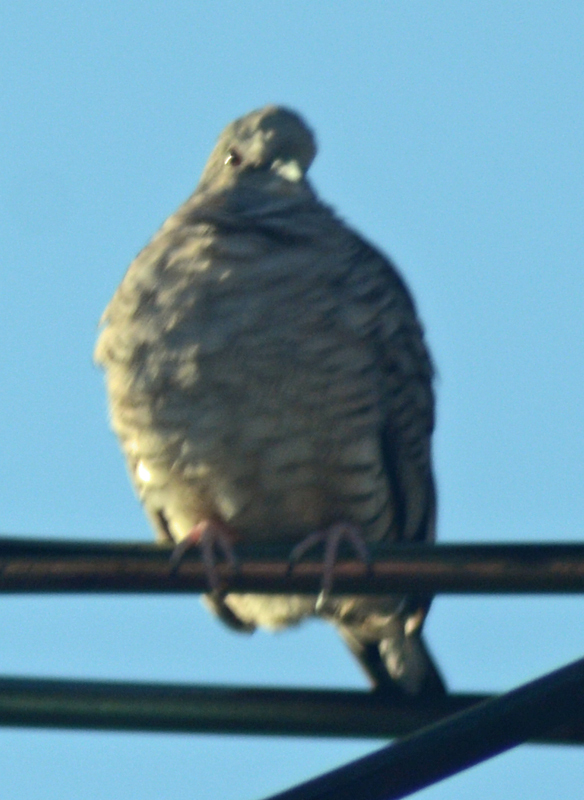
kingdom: Animalia
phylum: Chordata
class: Aves
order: Columbiformes
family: Columbidae
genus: Columbina
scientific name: Columbina inca
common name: Inca dove
